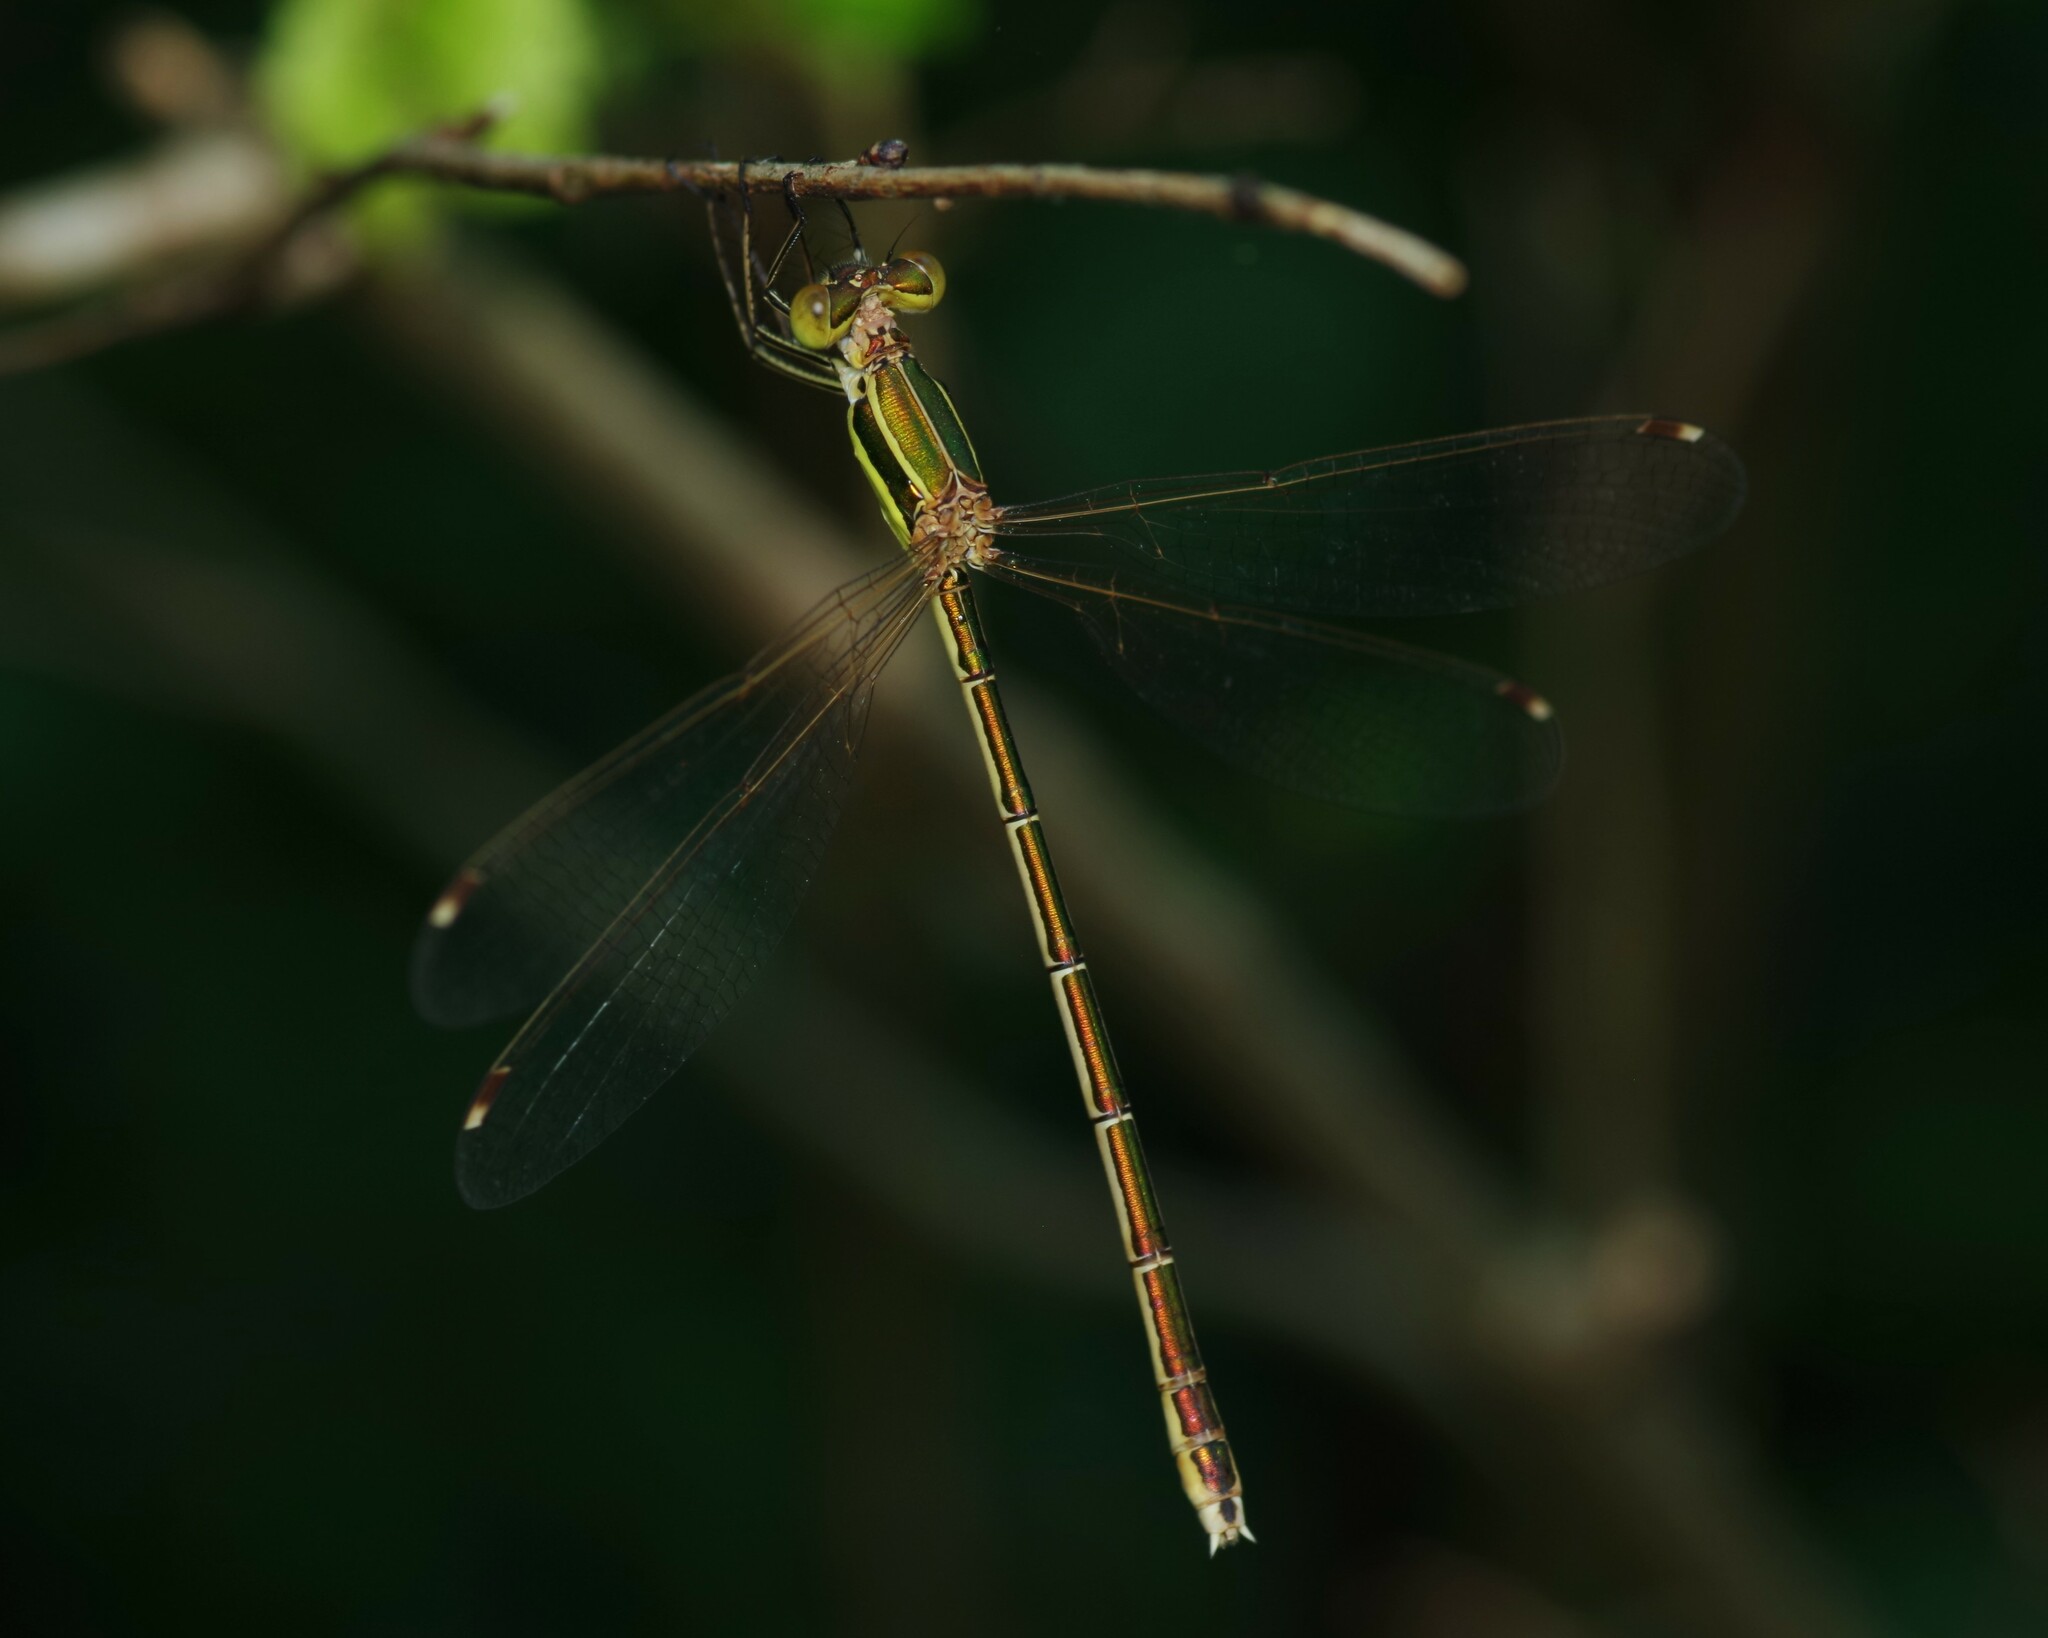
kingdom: Animalia
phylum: Arthropoda
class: Insecta
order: Odonata
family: Lestidae
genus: Lestes
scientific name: Lestes barbarus
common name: Migrant spreadwing
